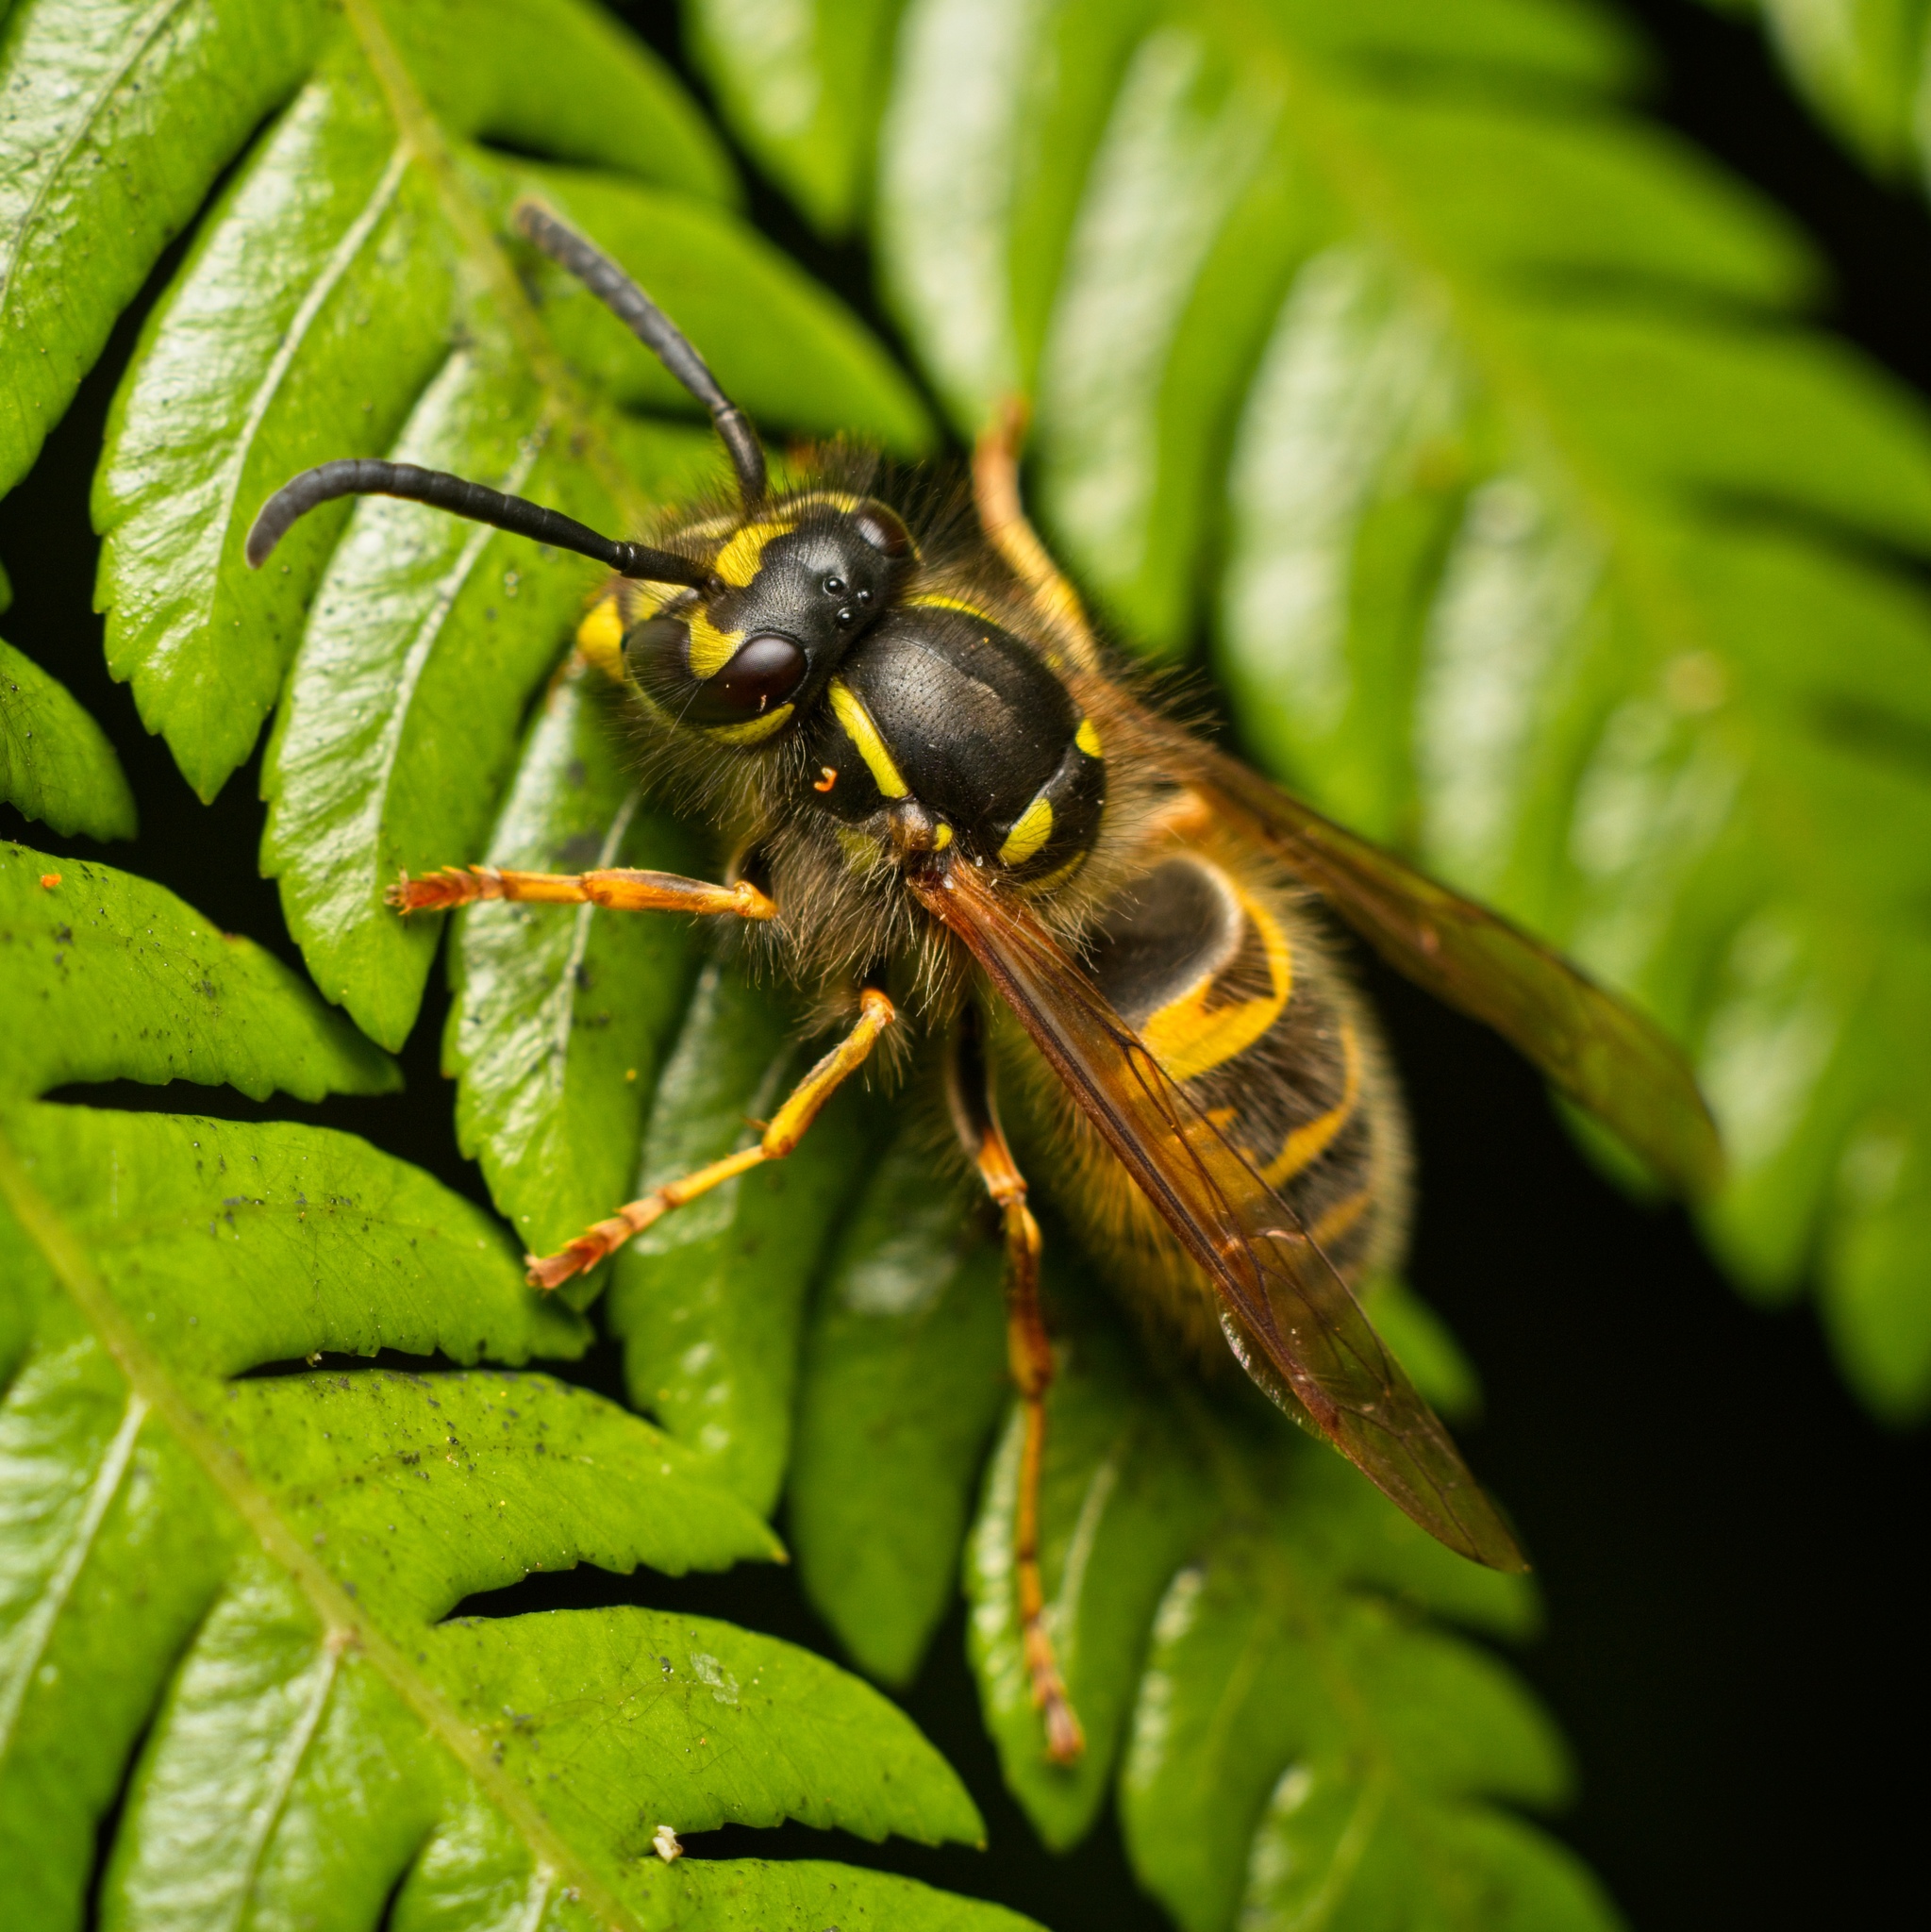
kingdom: Animalia
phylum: Arthropoda
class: Insecta
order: Hymenoptera
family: Vespidae
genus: Vespula
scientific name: Vespula vulgaris
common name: Common wasp
